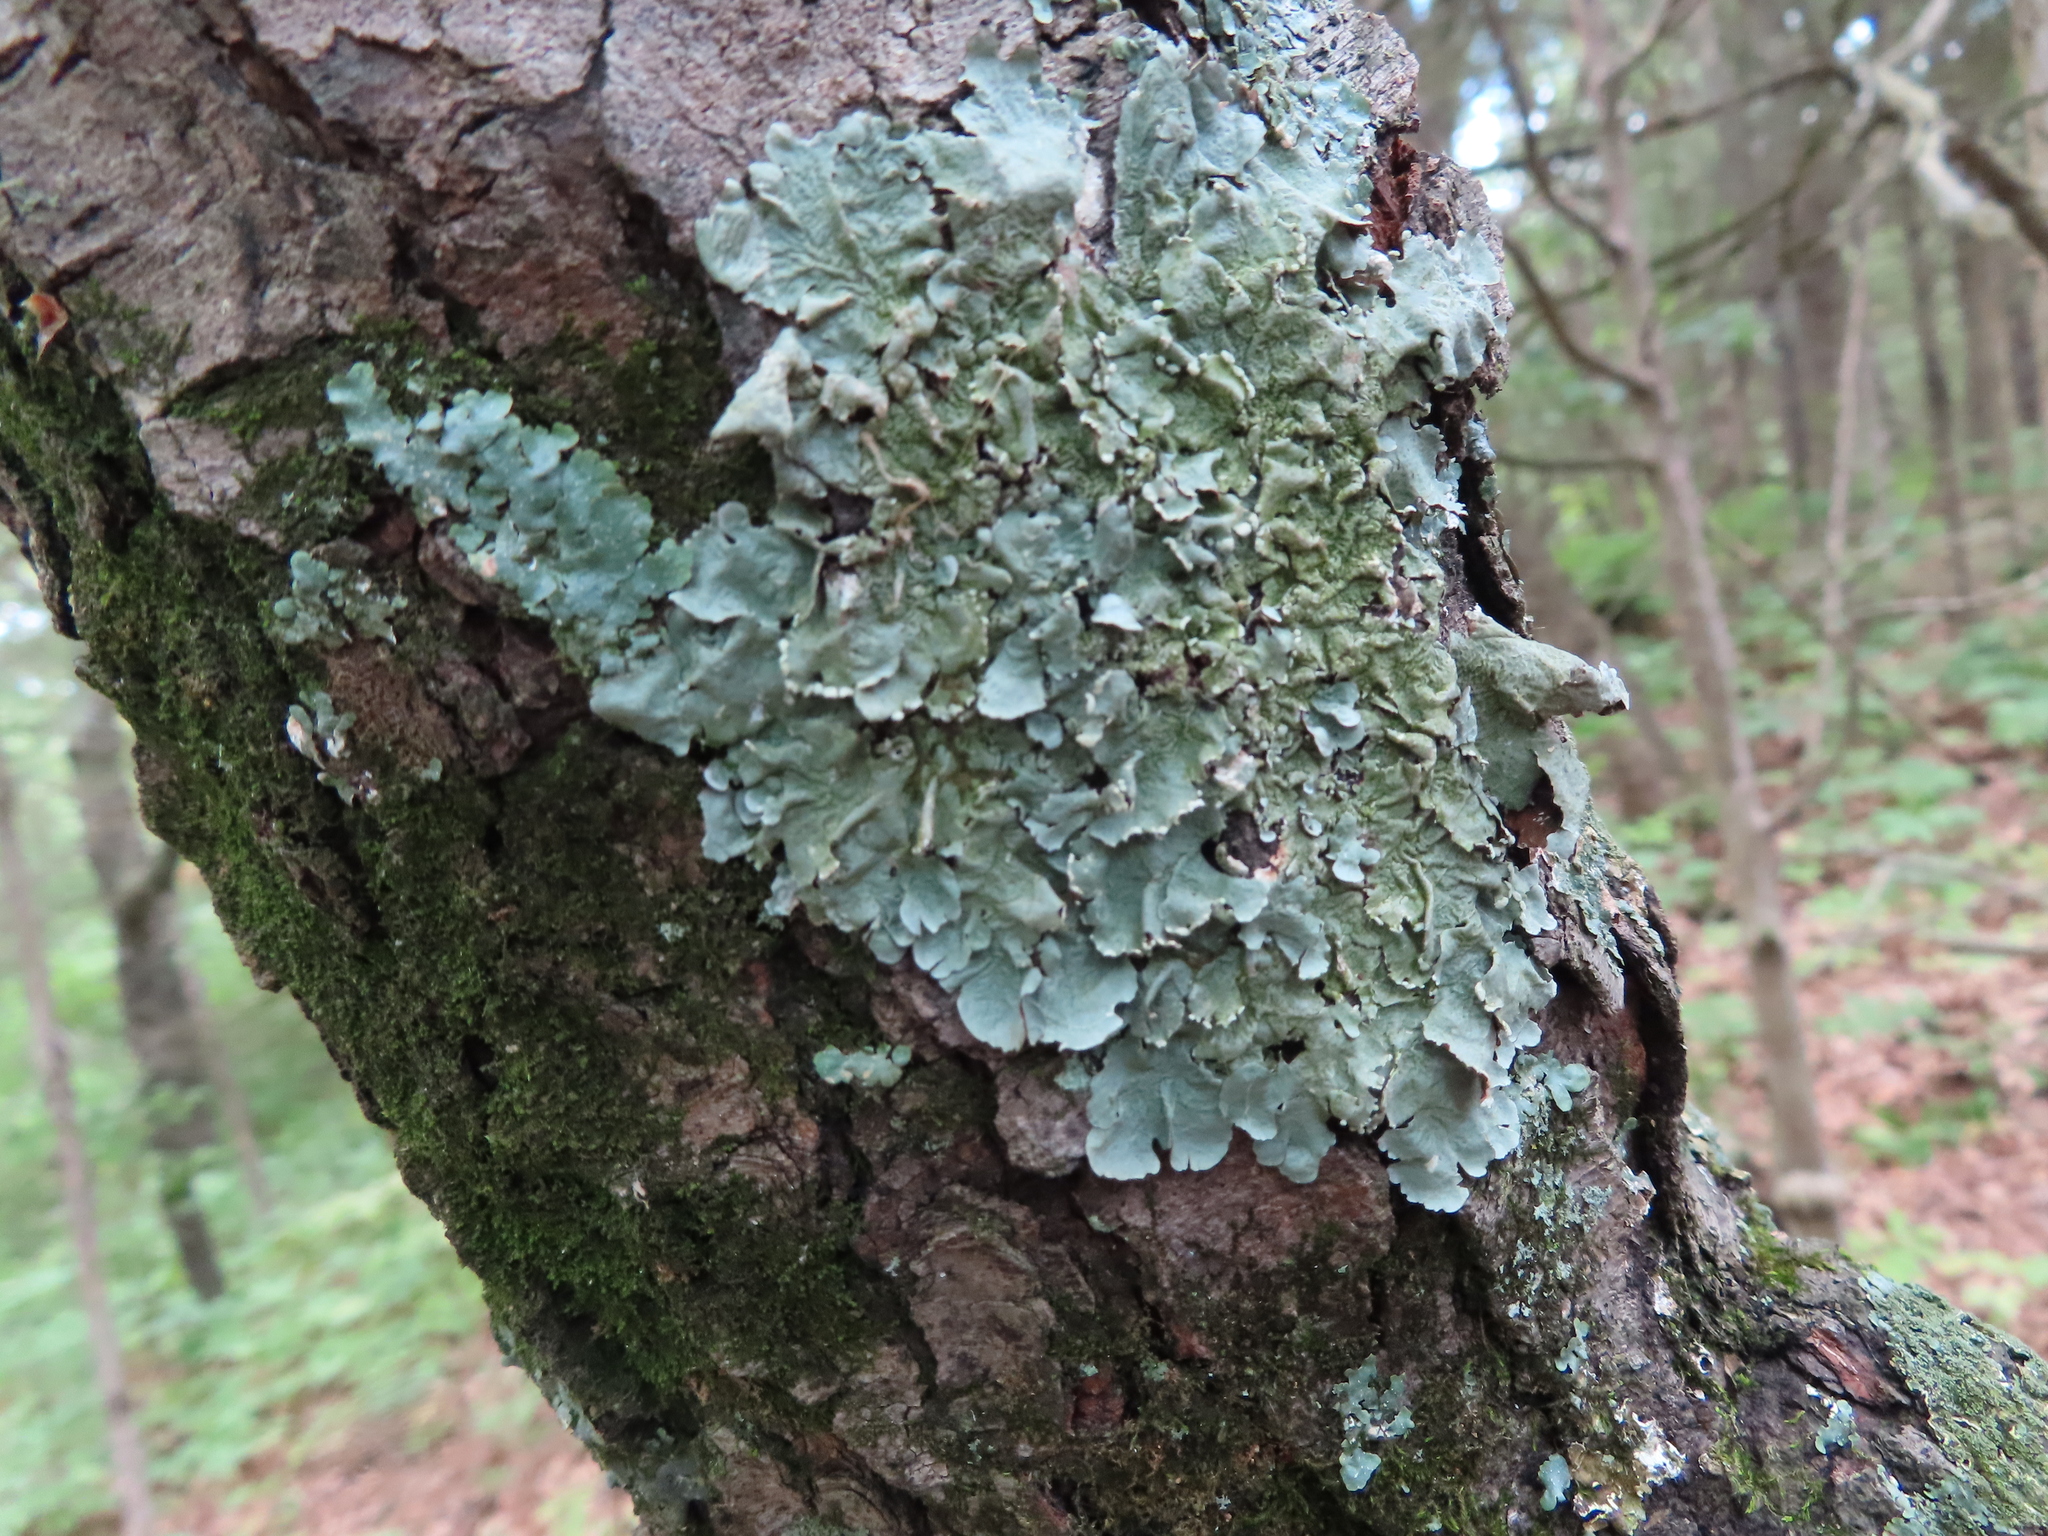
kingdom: Fungi
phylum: Ascomycota
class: Lecanoromycetes
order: Lecanorales
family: Parmeliaceae
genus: Flavoparmelia
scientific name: Flavoparmelia caperata
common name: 40-mile per hour lichen
